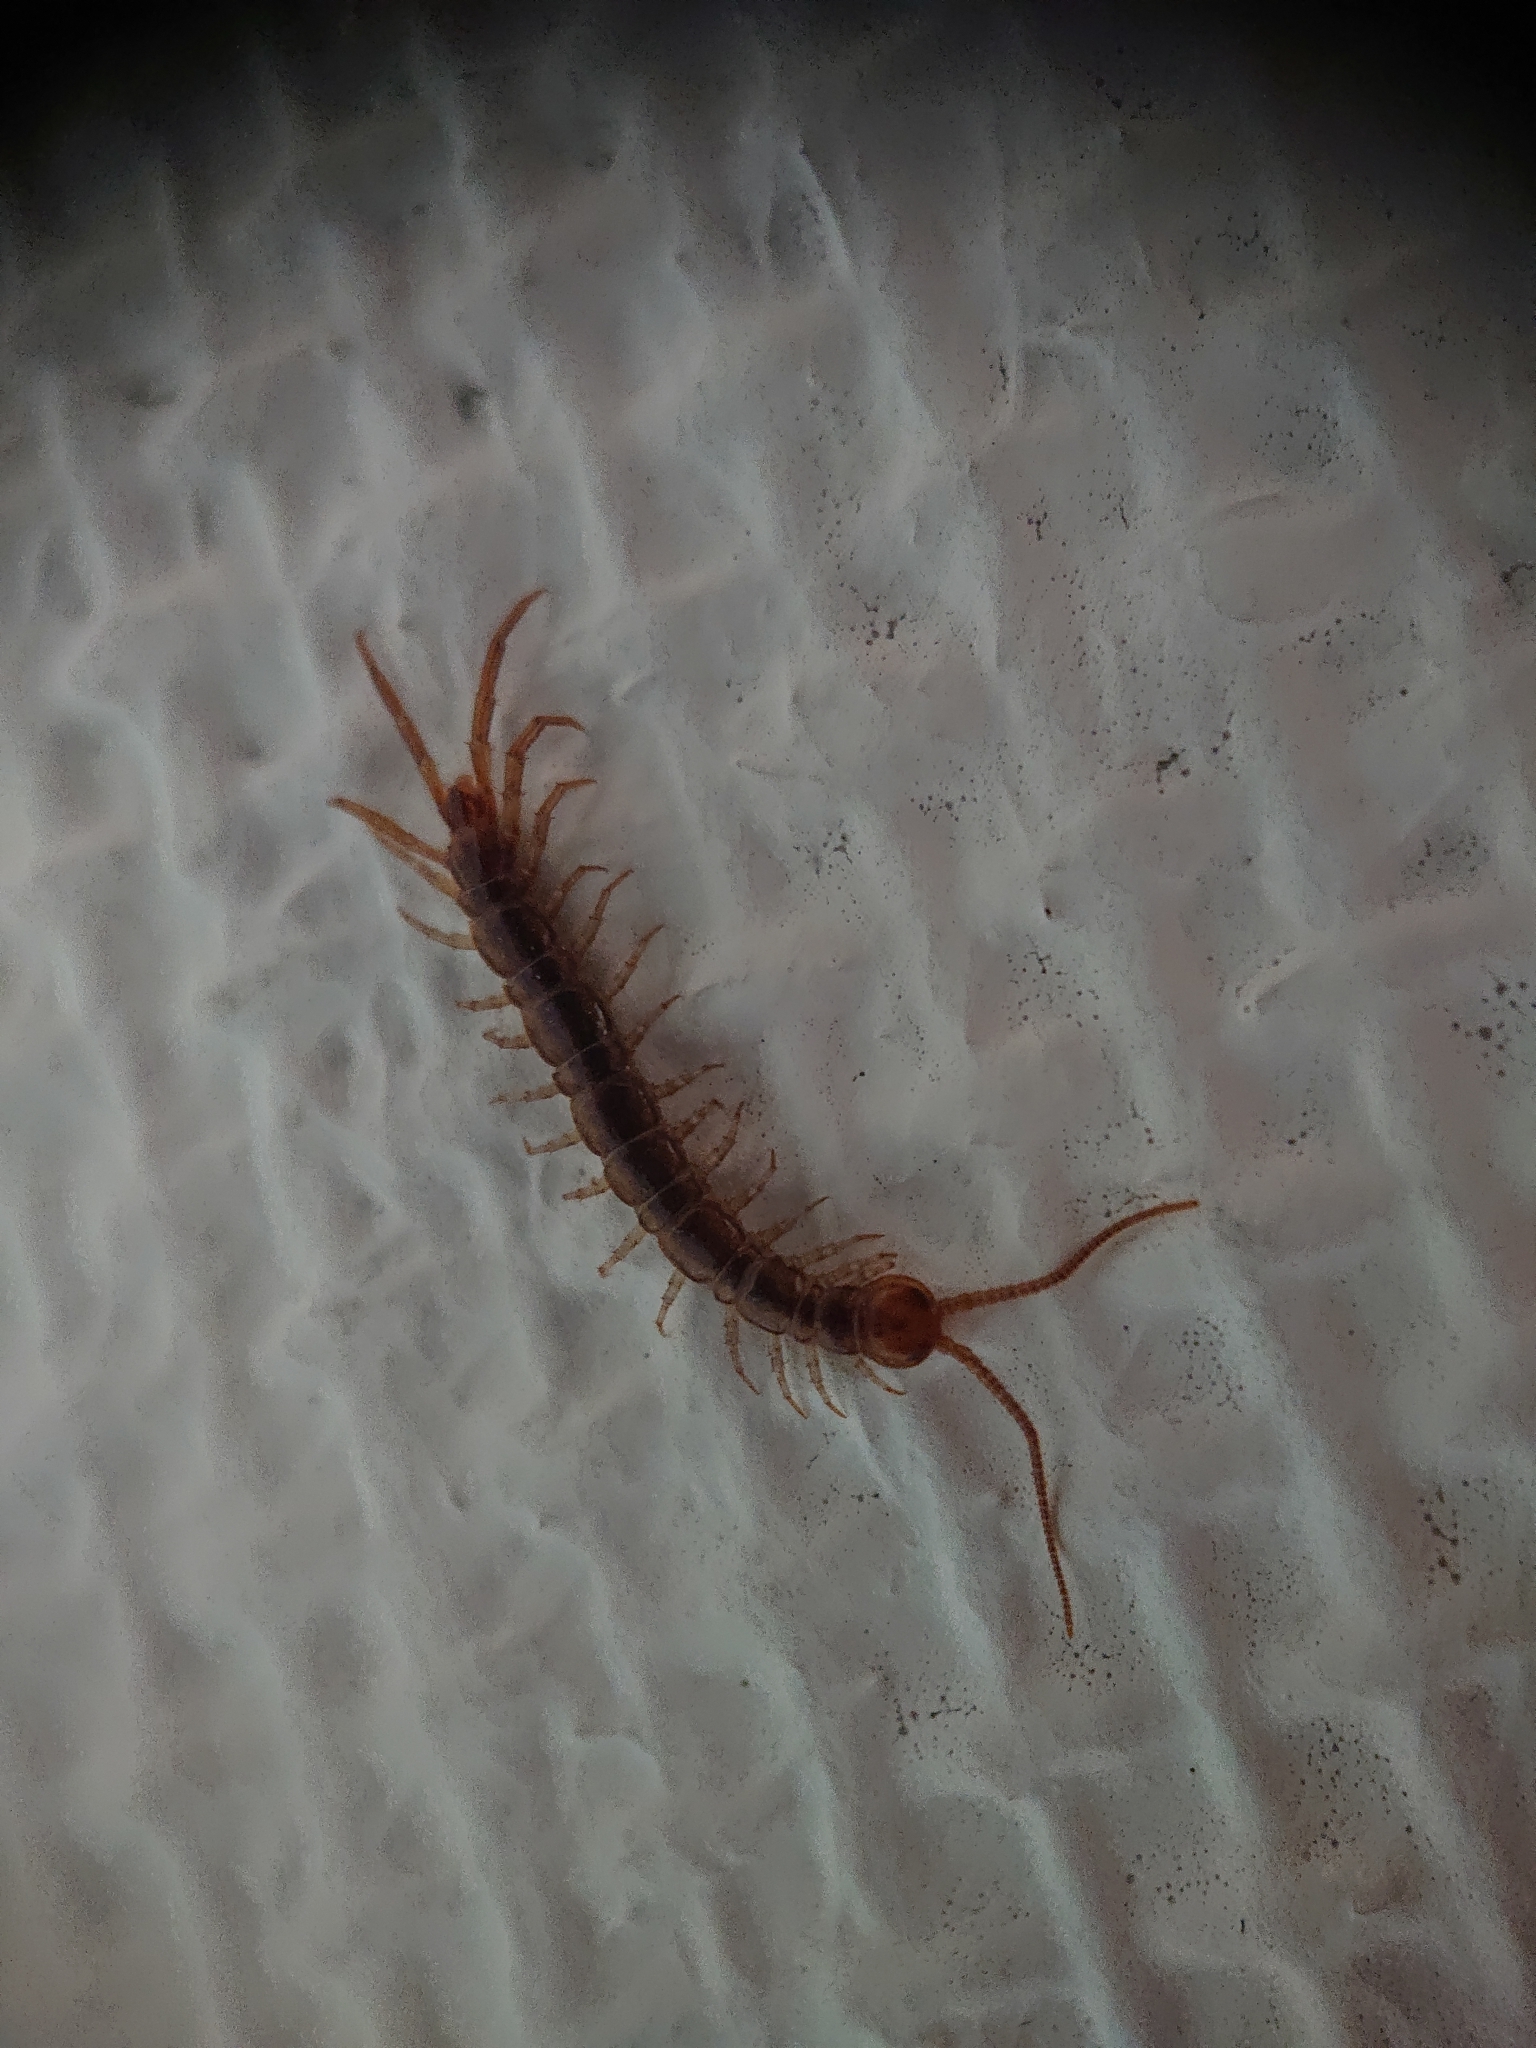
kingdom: Animalia
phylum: Arthropoda
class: Chilopoda
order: Lithobiomorpha
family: Lithobiidae
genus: Lithobius
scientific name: Lithobius forficatus
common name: Centipede
